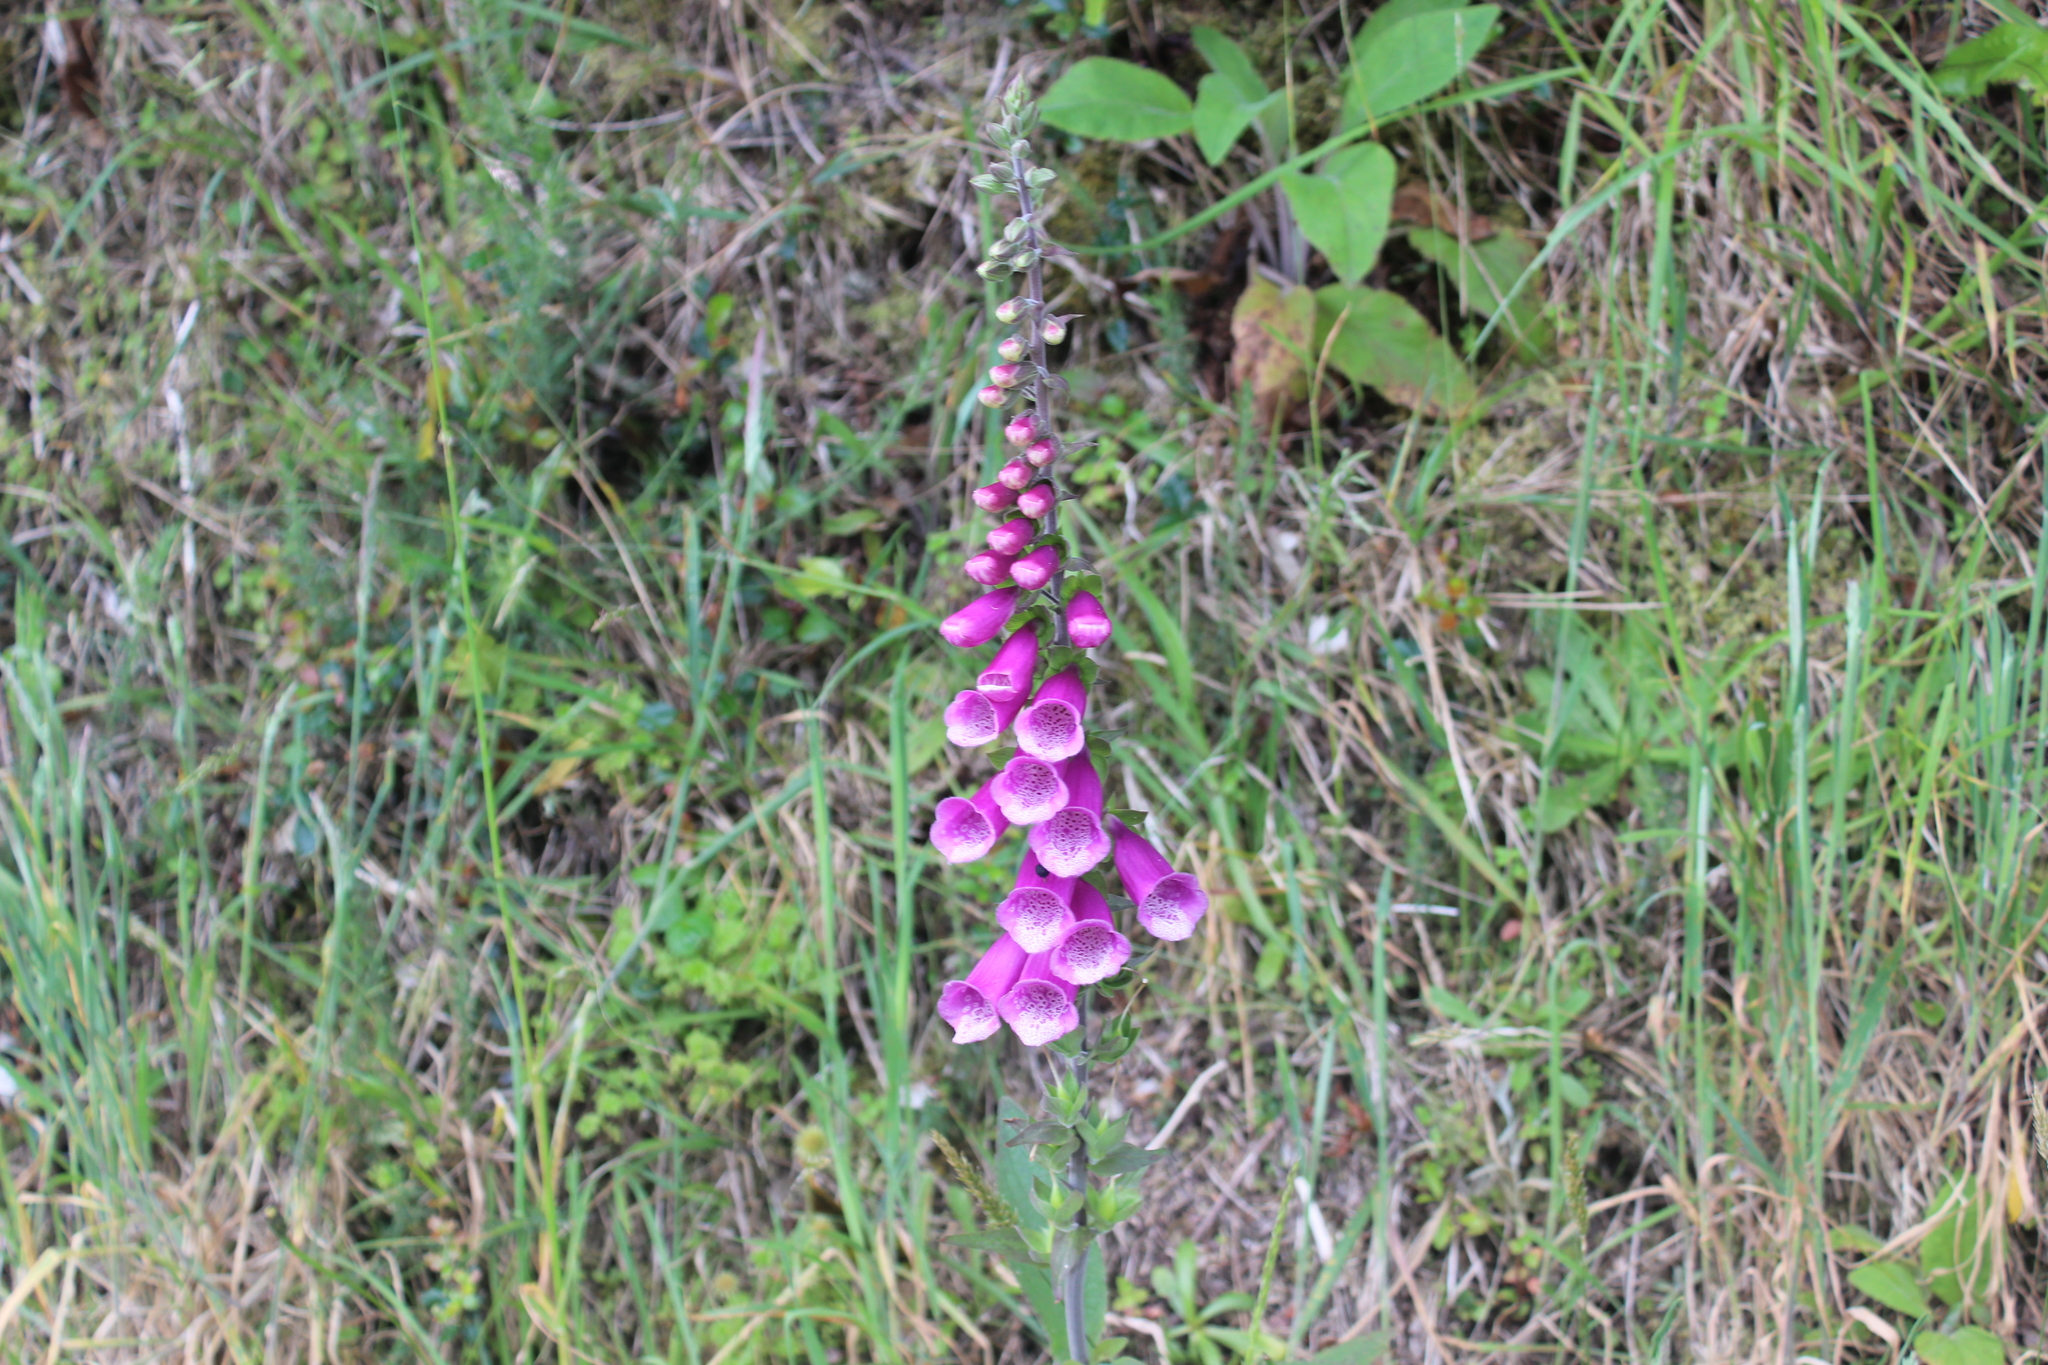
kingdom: Plantae
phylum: Tracheophyta
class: Magnoliopsida
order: Lamiales
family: Plantaginaceae
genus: Digitalis
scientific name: Digitalis purpurea
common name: Foxglove
